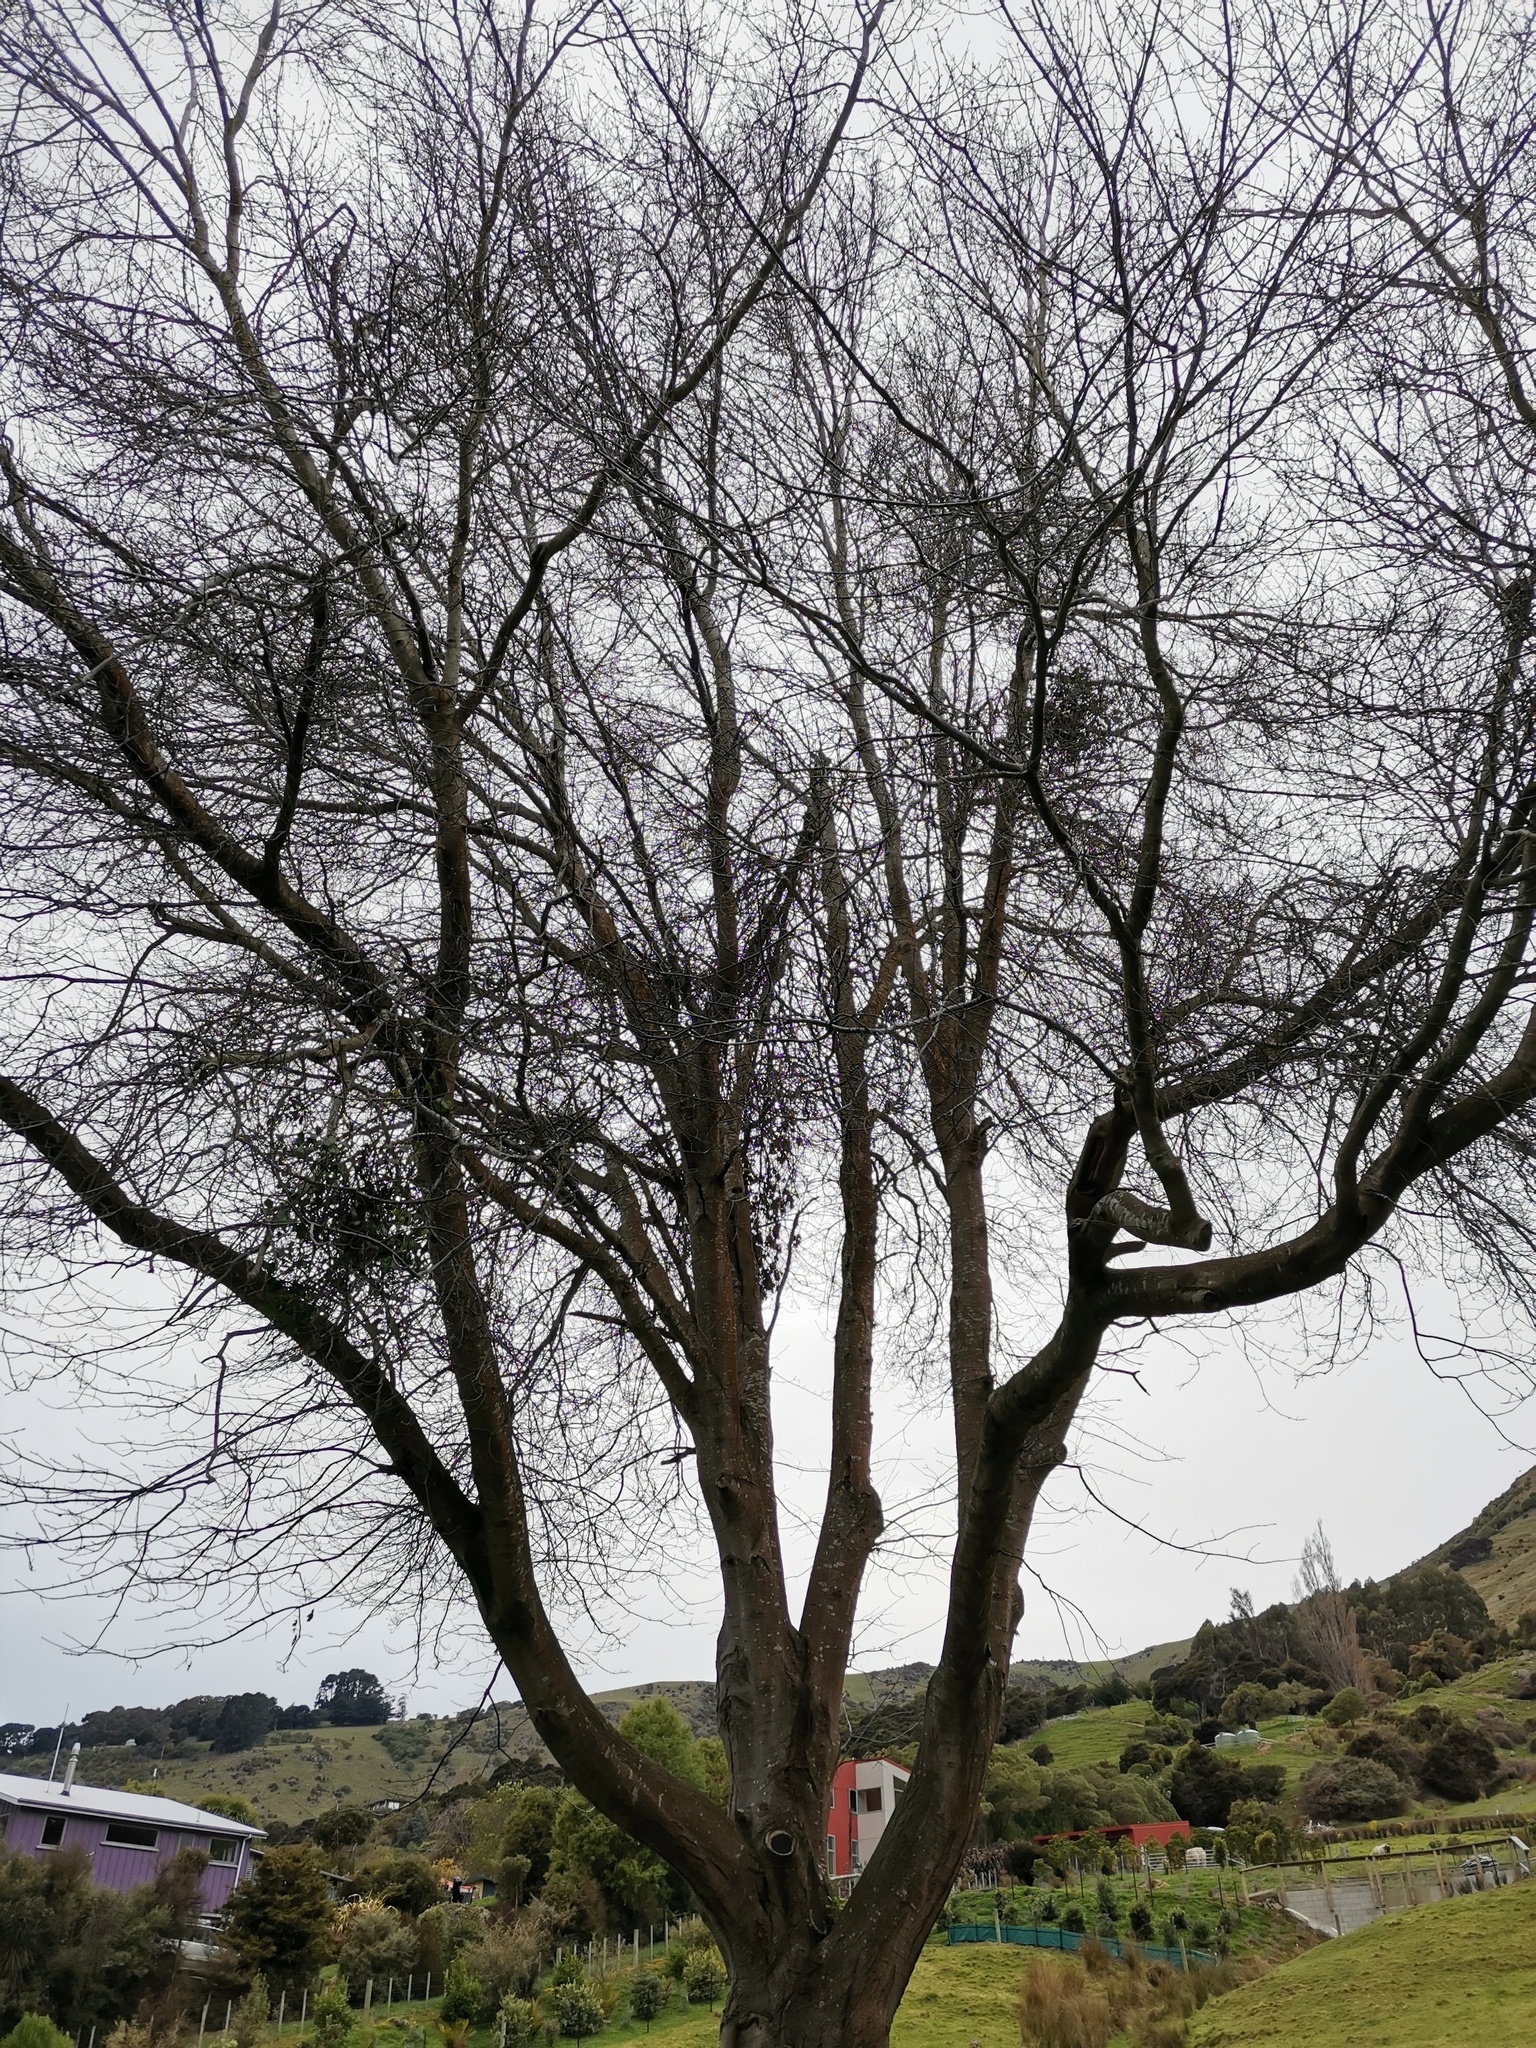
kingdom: Plantae
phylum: Tracheophyta
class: Magnoliopsida
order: Santalales
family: Loranthaceae
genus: Ileostylus
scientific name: Ileostylus micranthus
